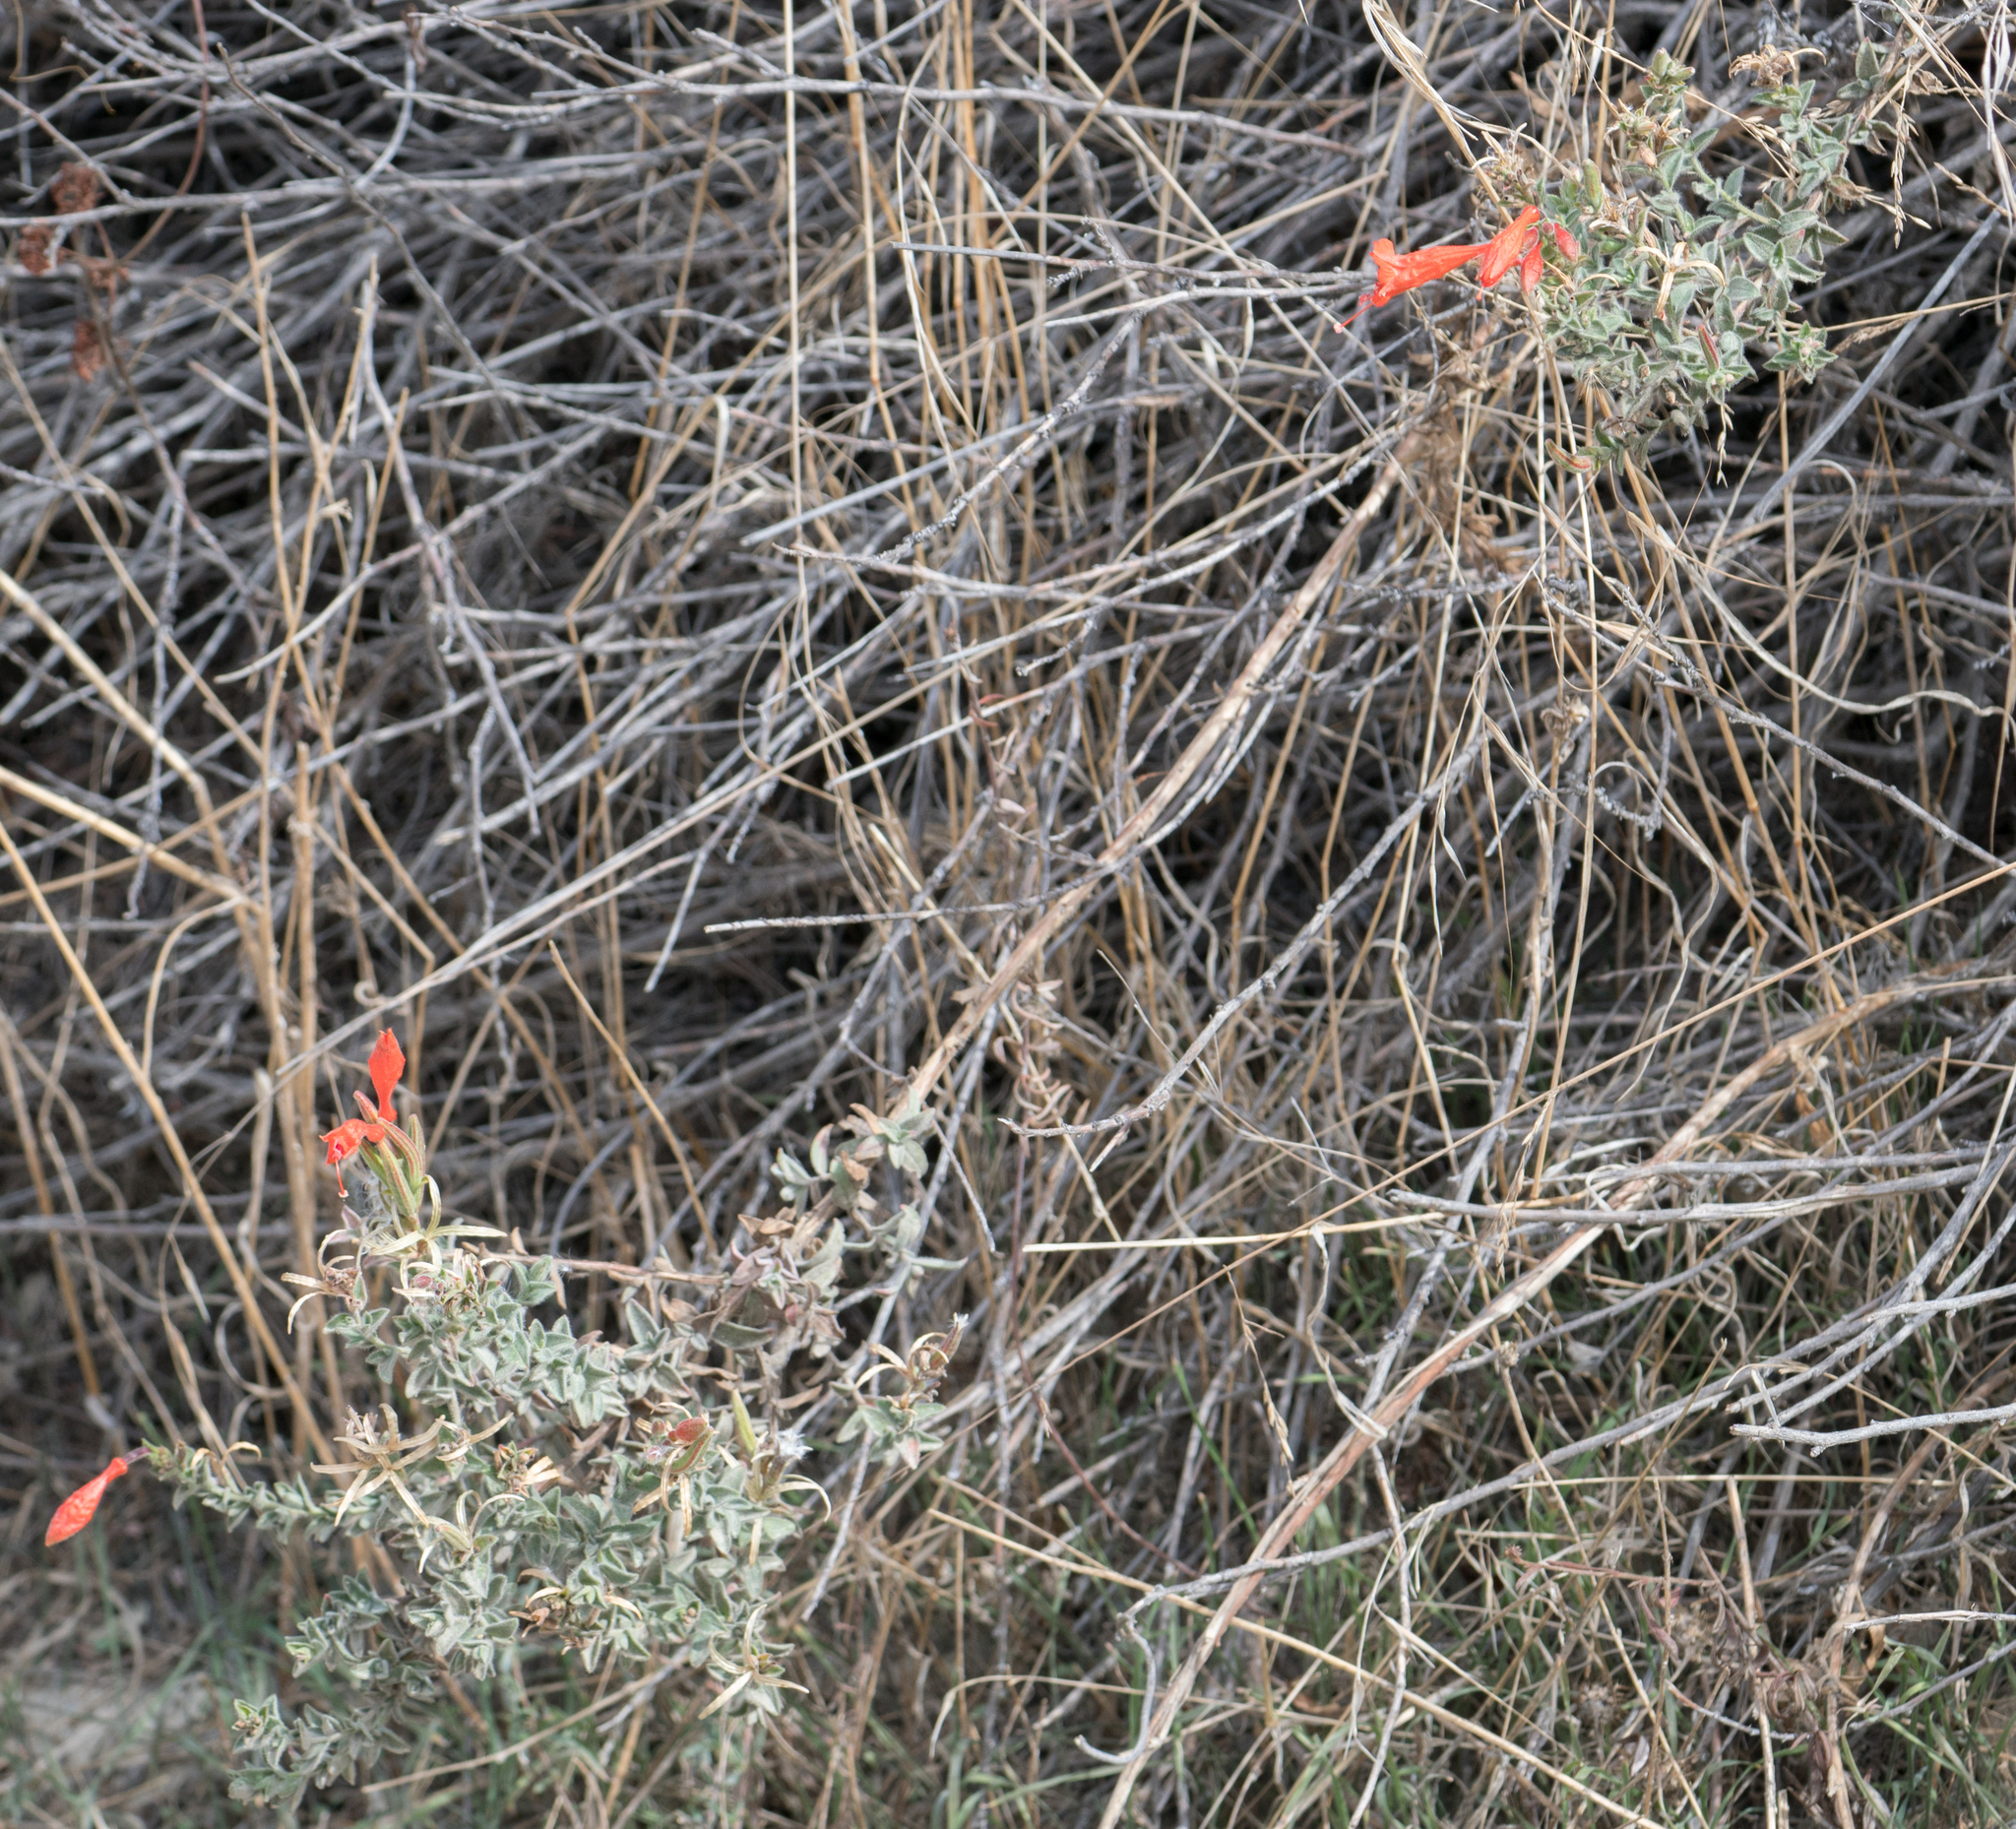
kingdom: Plantae
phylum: Tracheophyta
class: Magnoliopsida
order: Myrtales
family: Onagraceae
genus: Epilobium
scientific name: Epilobium canum
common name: California-fuchsia
